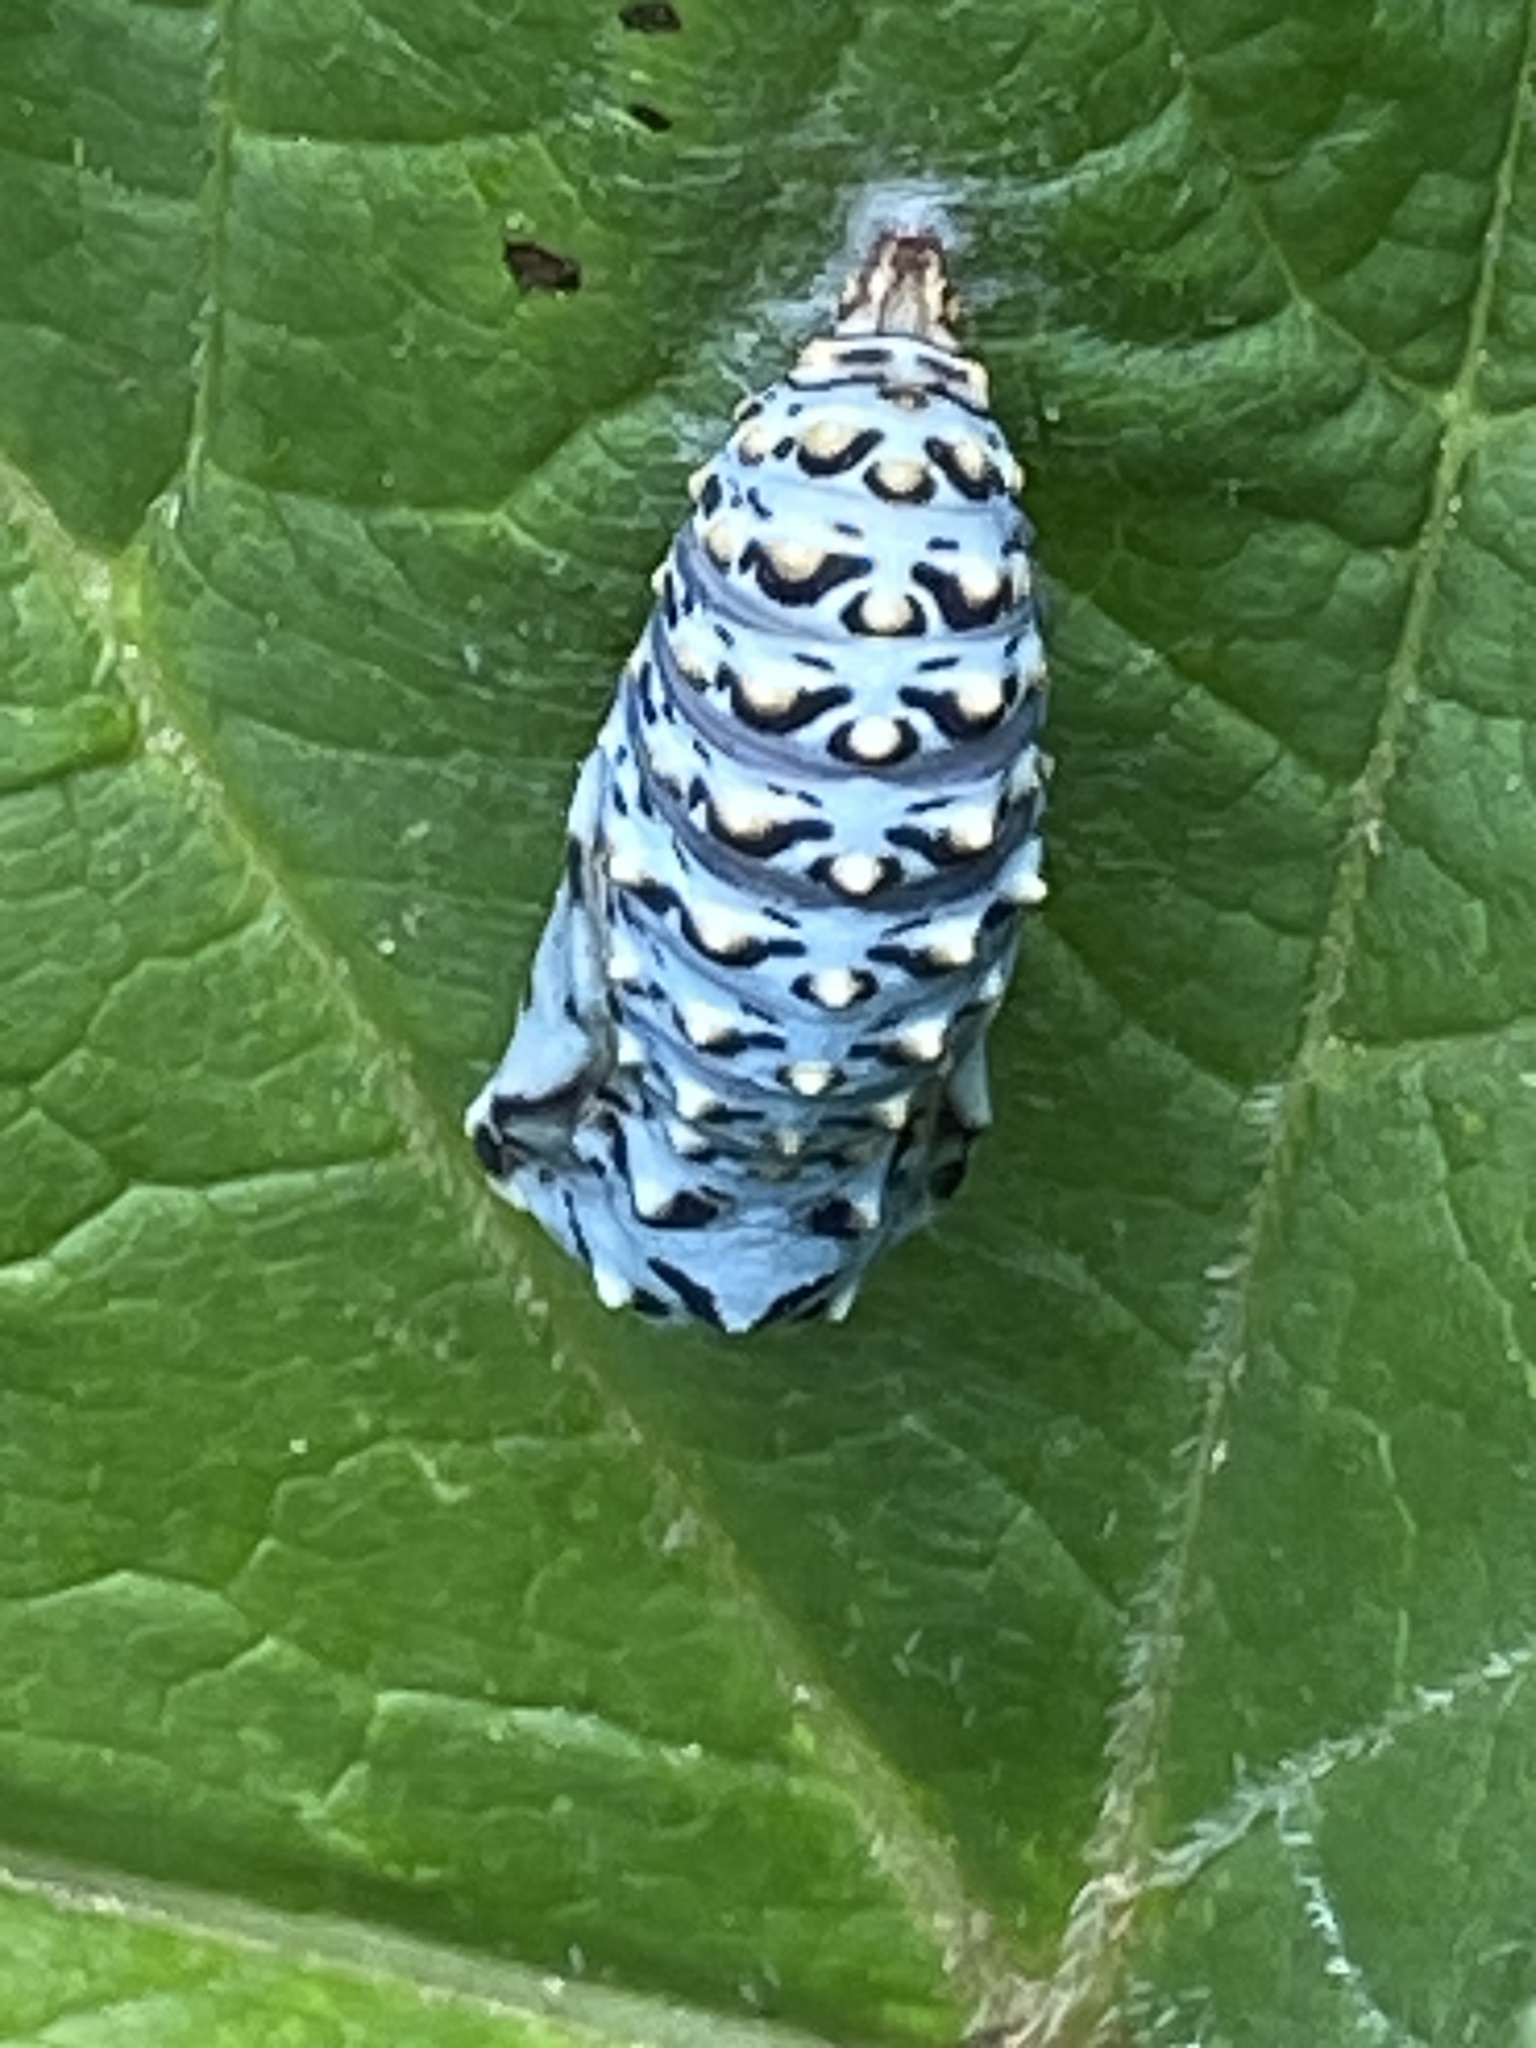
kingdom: Animalia
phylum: Arthropoda
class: Insecta
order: Lepidoptera
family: Nymphalidae
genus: Occidryas
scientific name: Occidryas chalcedona
